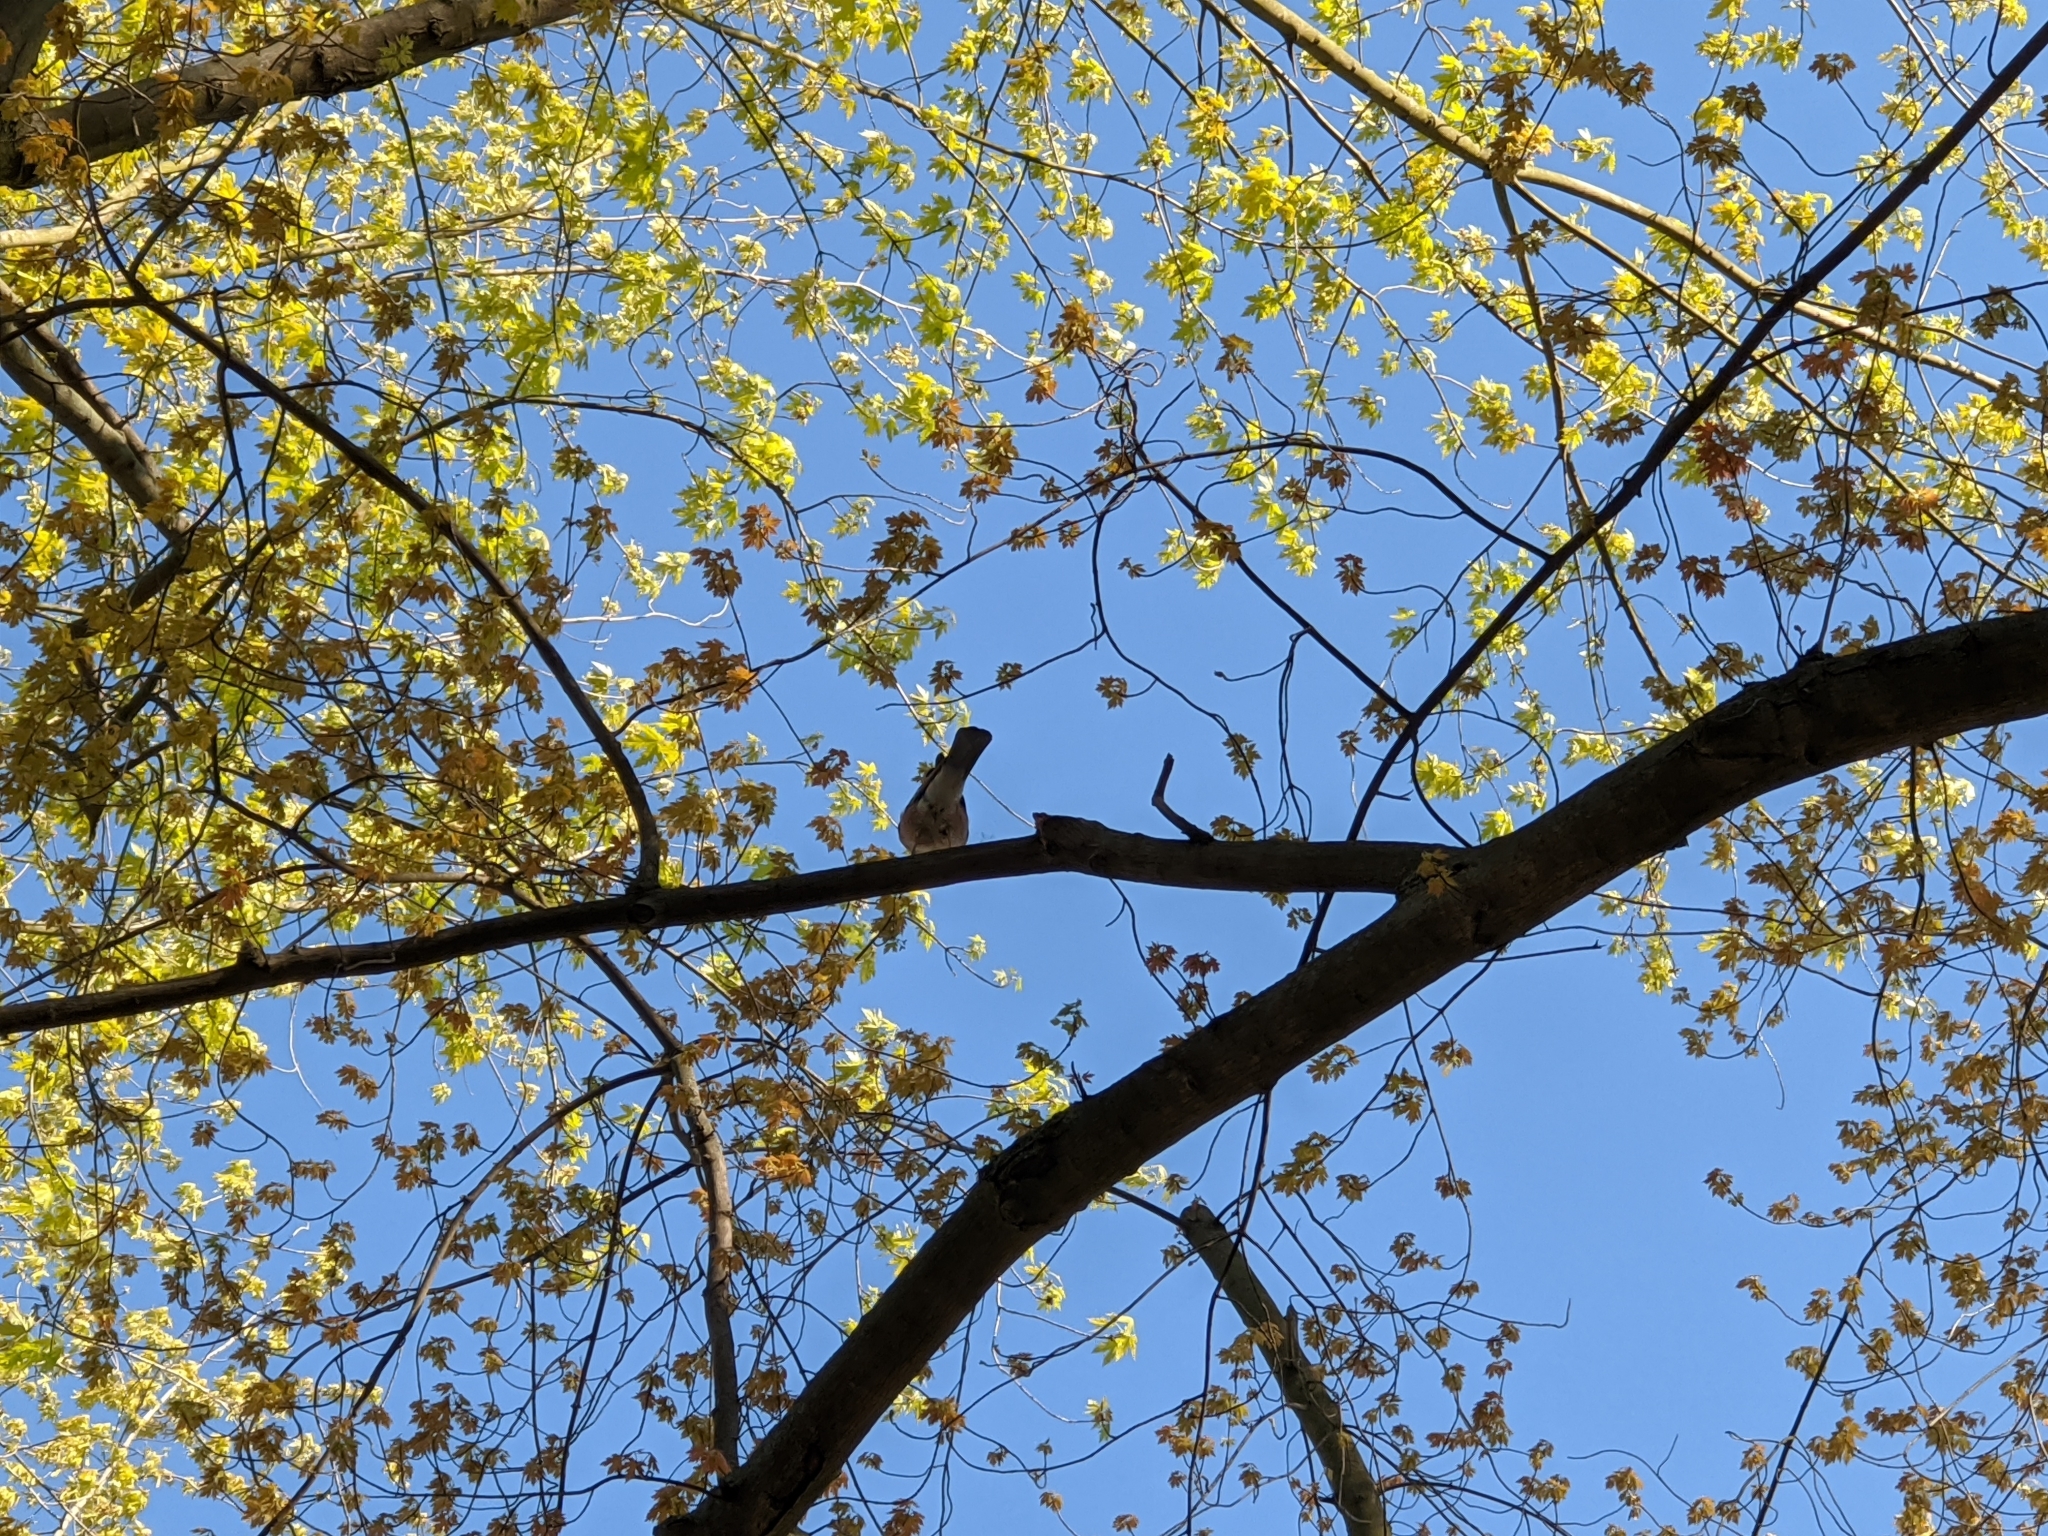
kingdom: Animalia
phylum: Chordata
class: Aves
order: Passeriformes
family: Corvidae
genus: Garrulus
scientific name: Garrulus glandarius
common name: Eurasian jay
